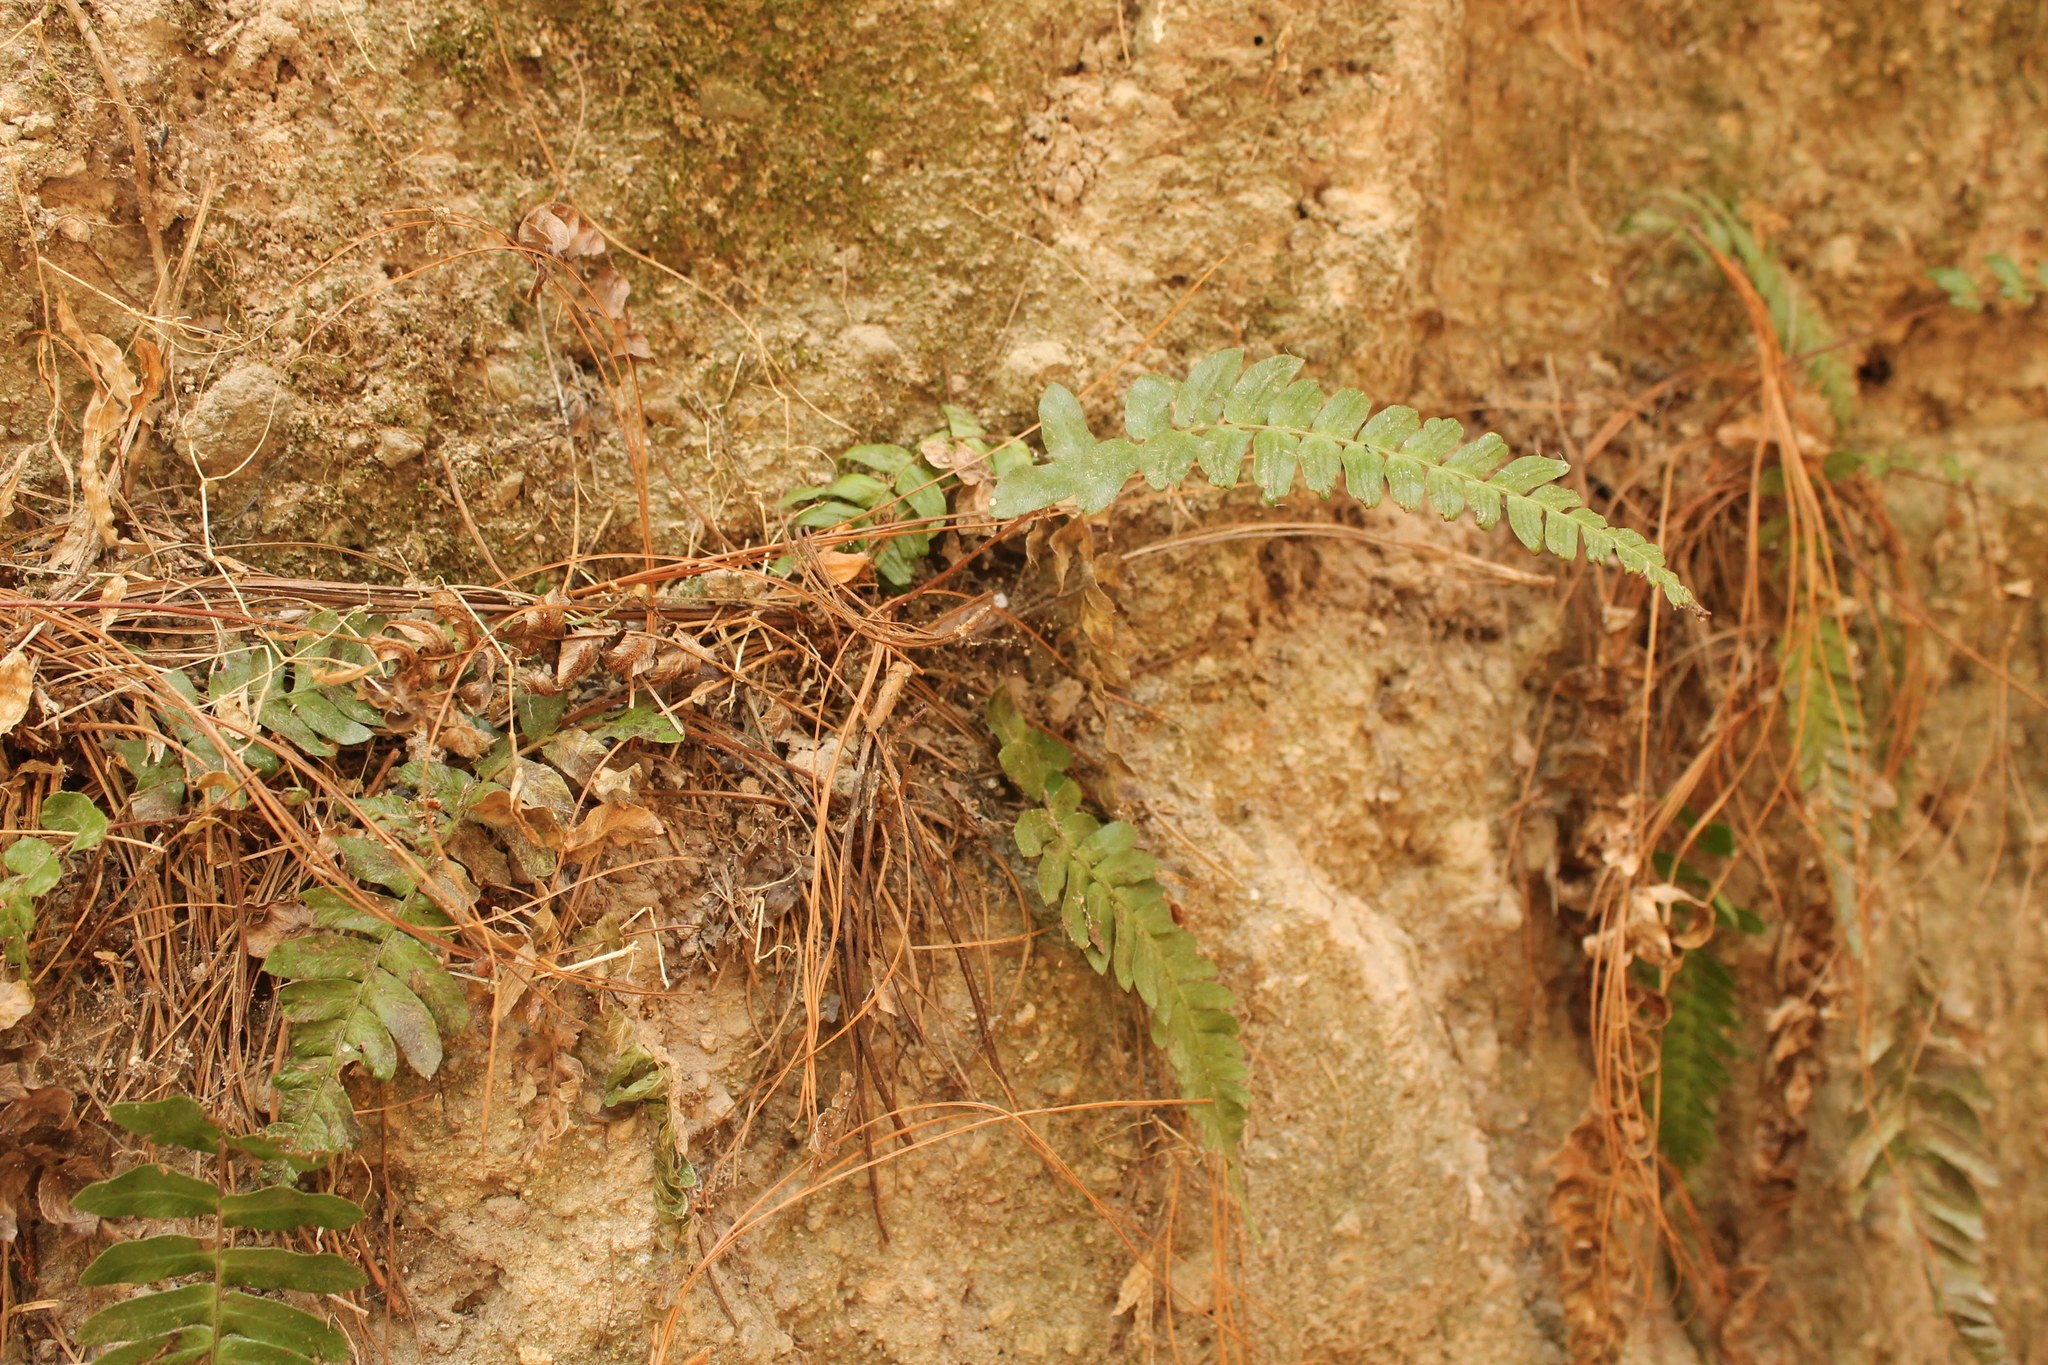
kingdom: Plantae
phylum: Tracheophyta
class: Polypodiopsida
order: Polypodiales
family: Blechnaceae
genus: Blechnum
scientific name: Blechnum occidentale
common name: Hammock fern
